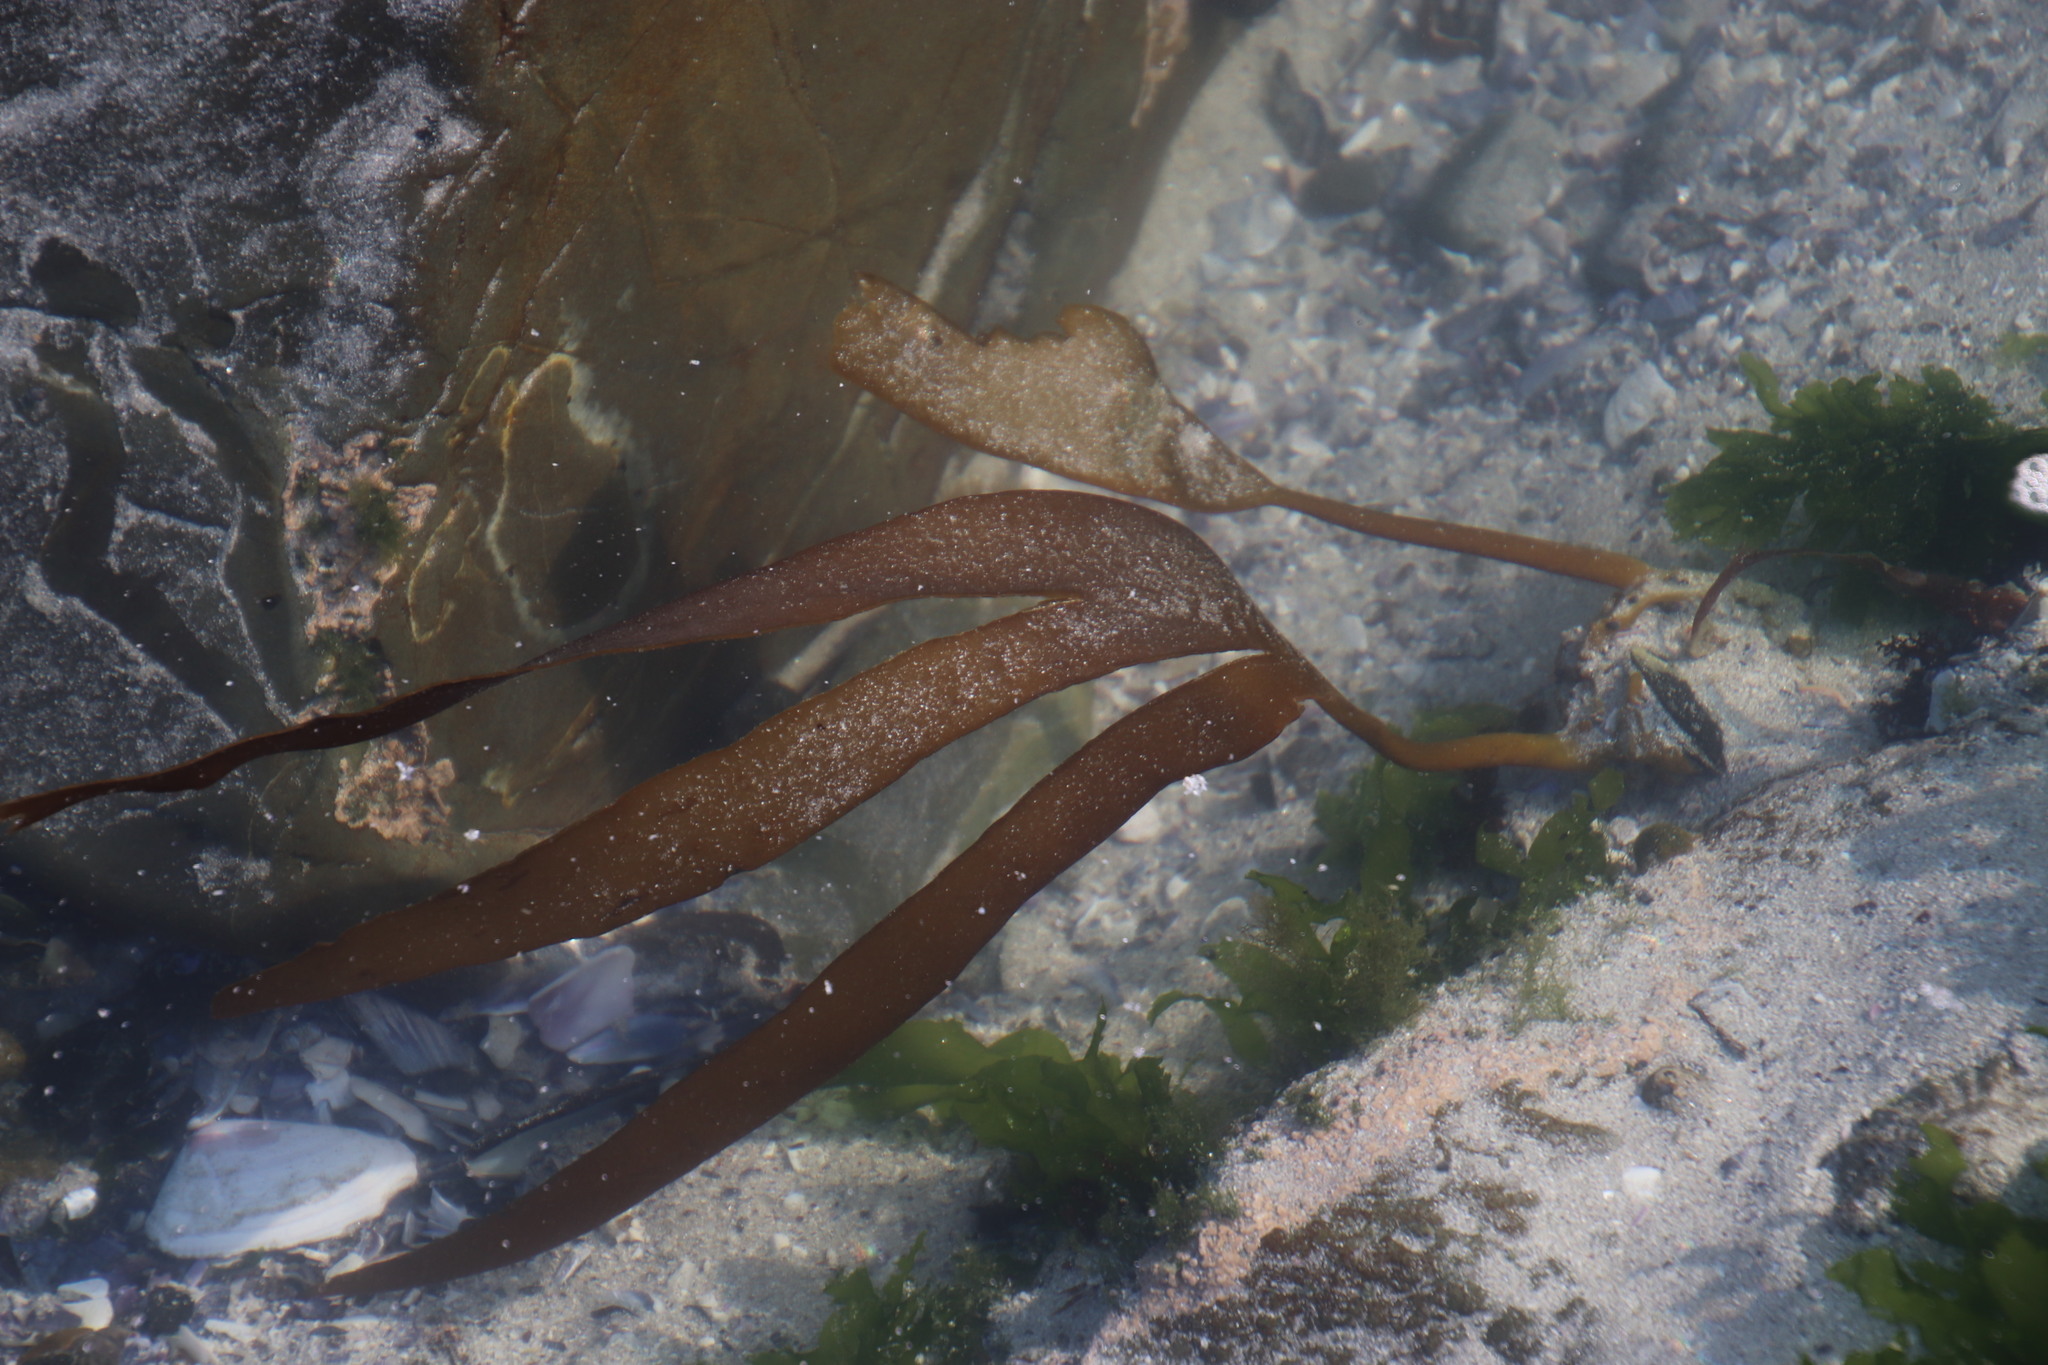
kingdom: Chromista
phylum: Ochrophyta
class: Phaeophyceae
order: Laminariales
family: Laminariaceae
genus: Laminaria
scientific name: Laminaria pallida
